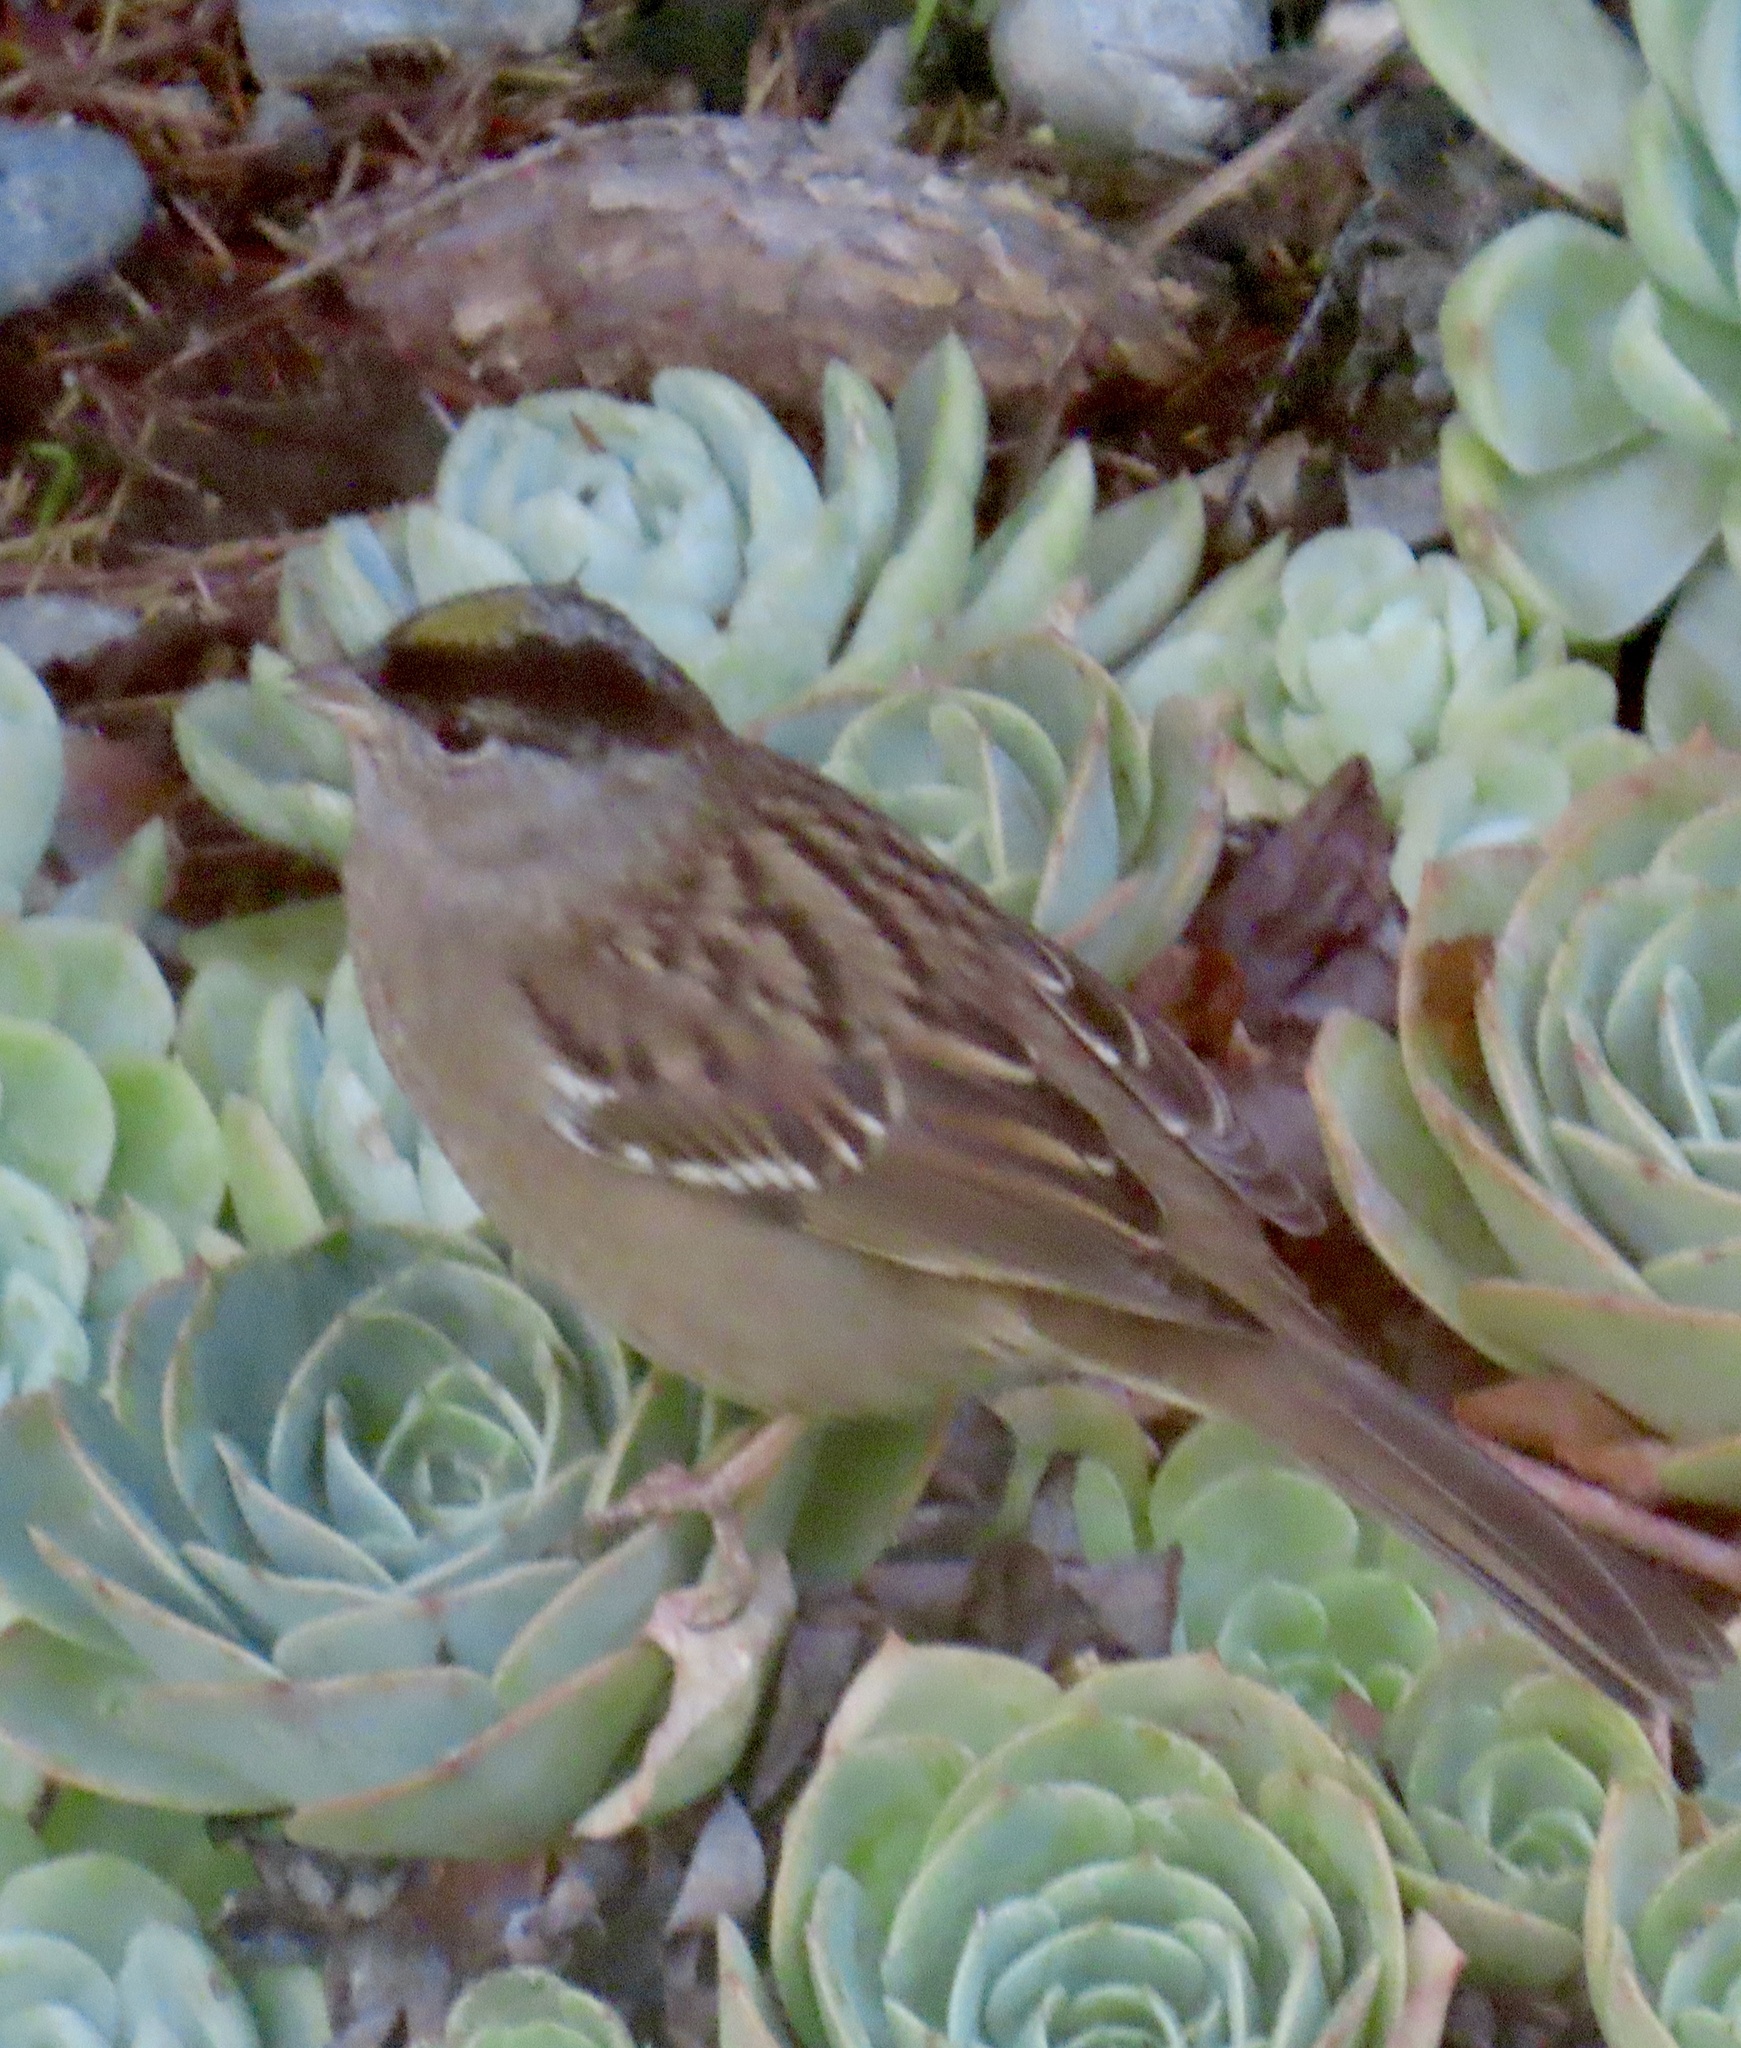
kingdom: Animalia
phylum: Chordata
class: Aves
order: Passeriformes
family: Passerellidae
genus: Zonotrichia
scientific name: Zonotrichia atricapilla
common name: Golden-crowned sparrow
